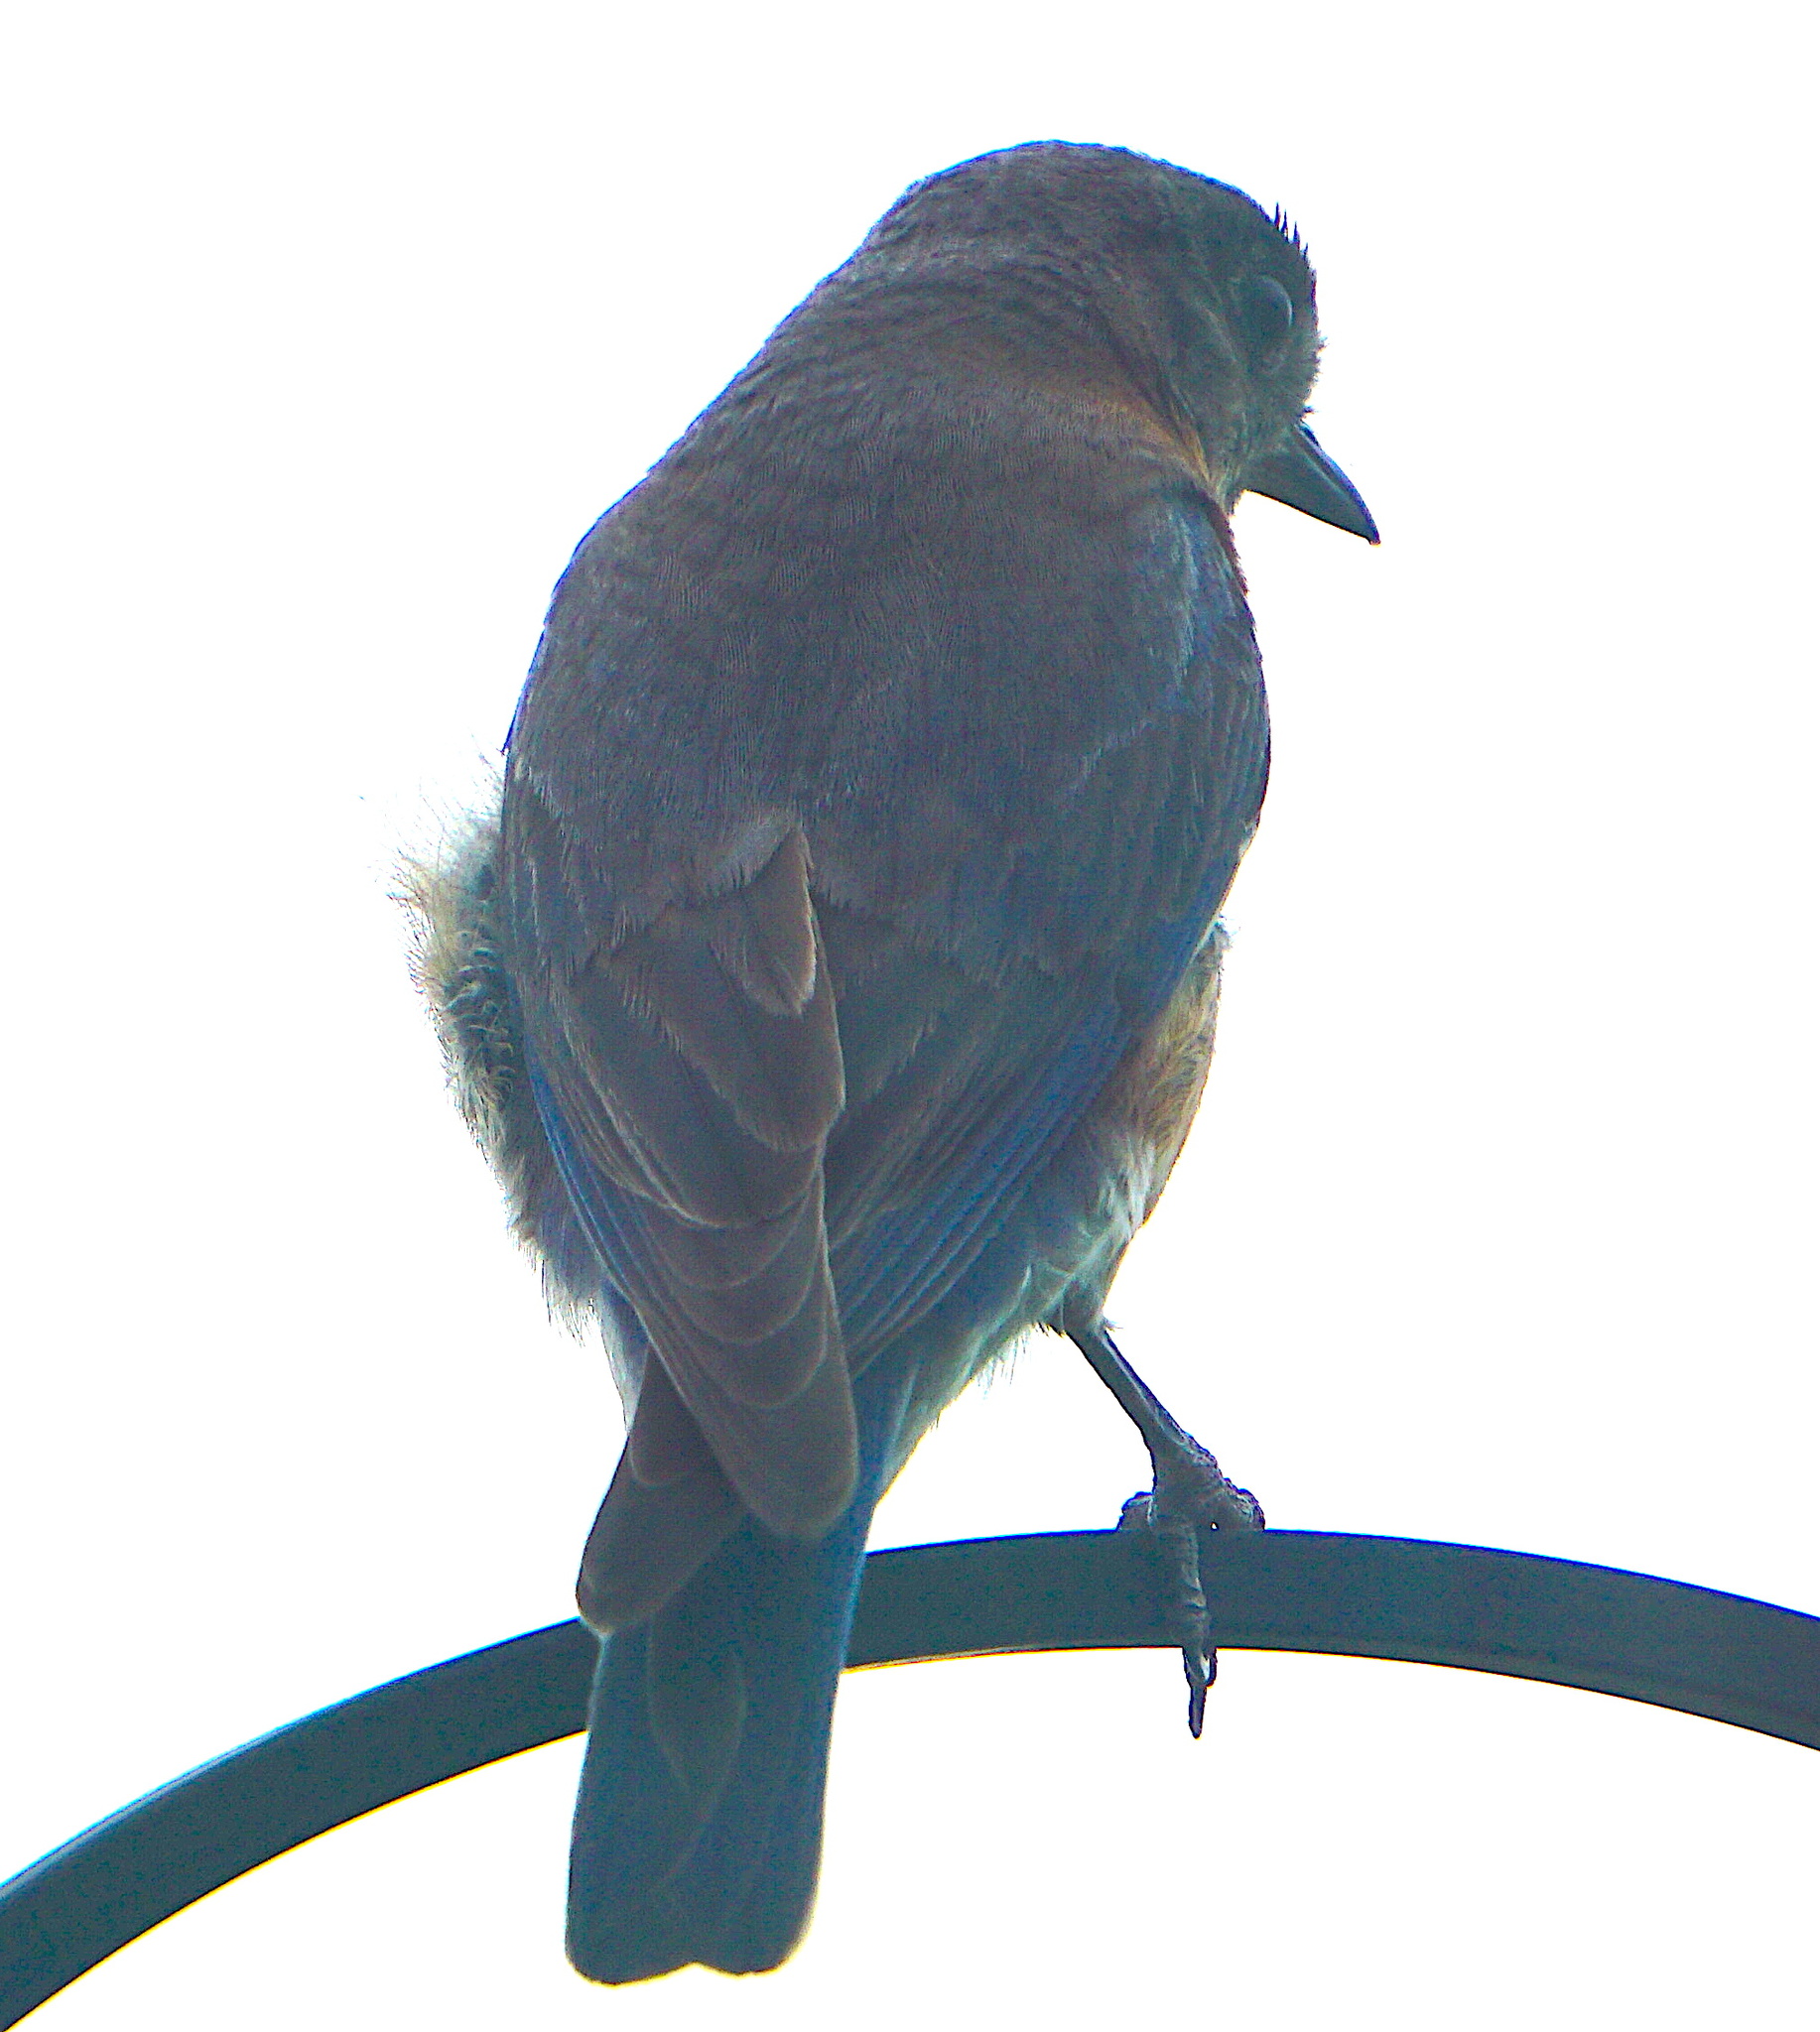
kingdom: Animalia
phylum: Chordata
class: Aves
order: Passeriformes
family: Turdidae
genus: Sialia
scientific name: Sialia sialis
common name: Eastern bluebird
